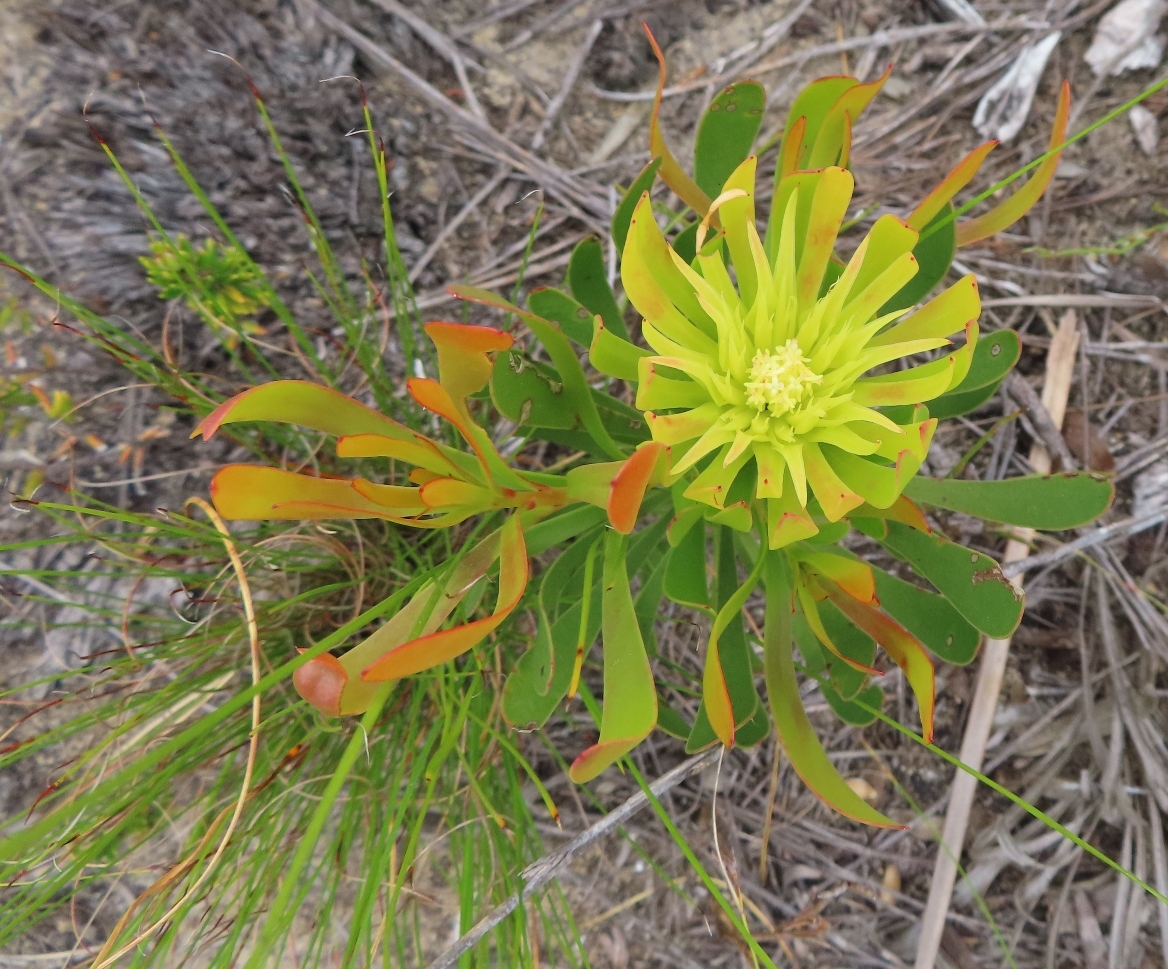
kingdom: Plantae
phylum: Tracheophyta
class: Magnoliopsida
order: Proteales
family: Proteaceae
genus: Aulax
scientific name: Aulax umbellata
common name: Broad-leaf featherbush
